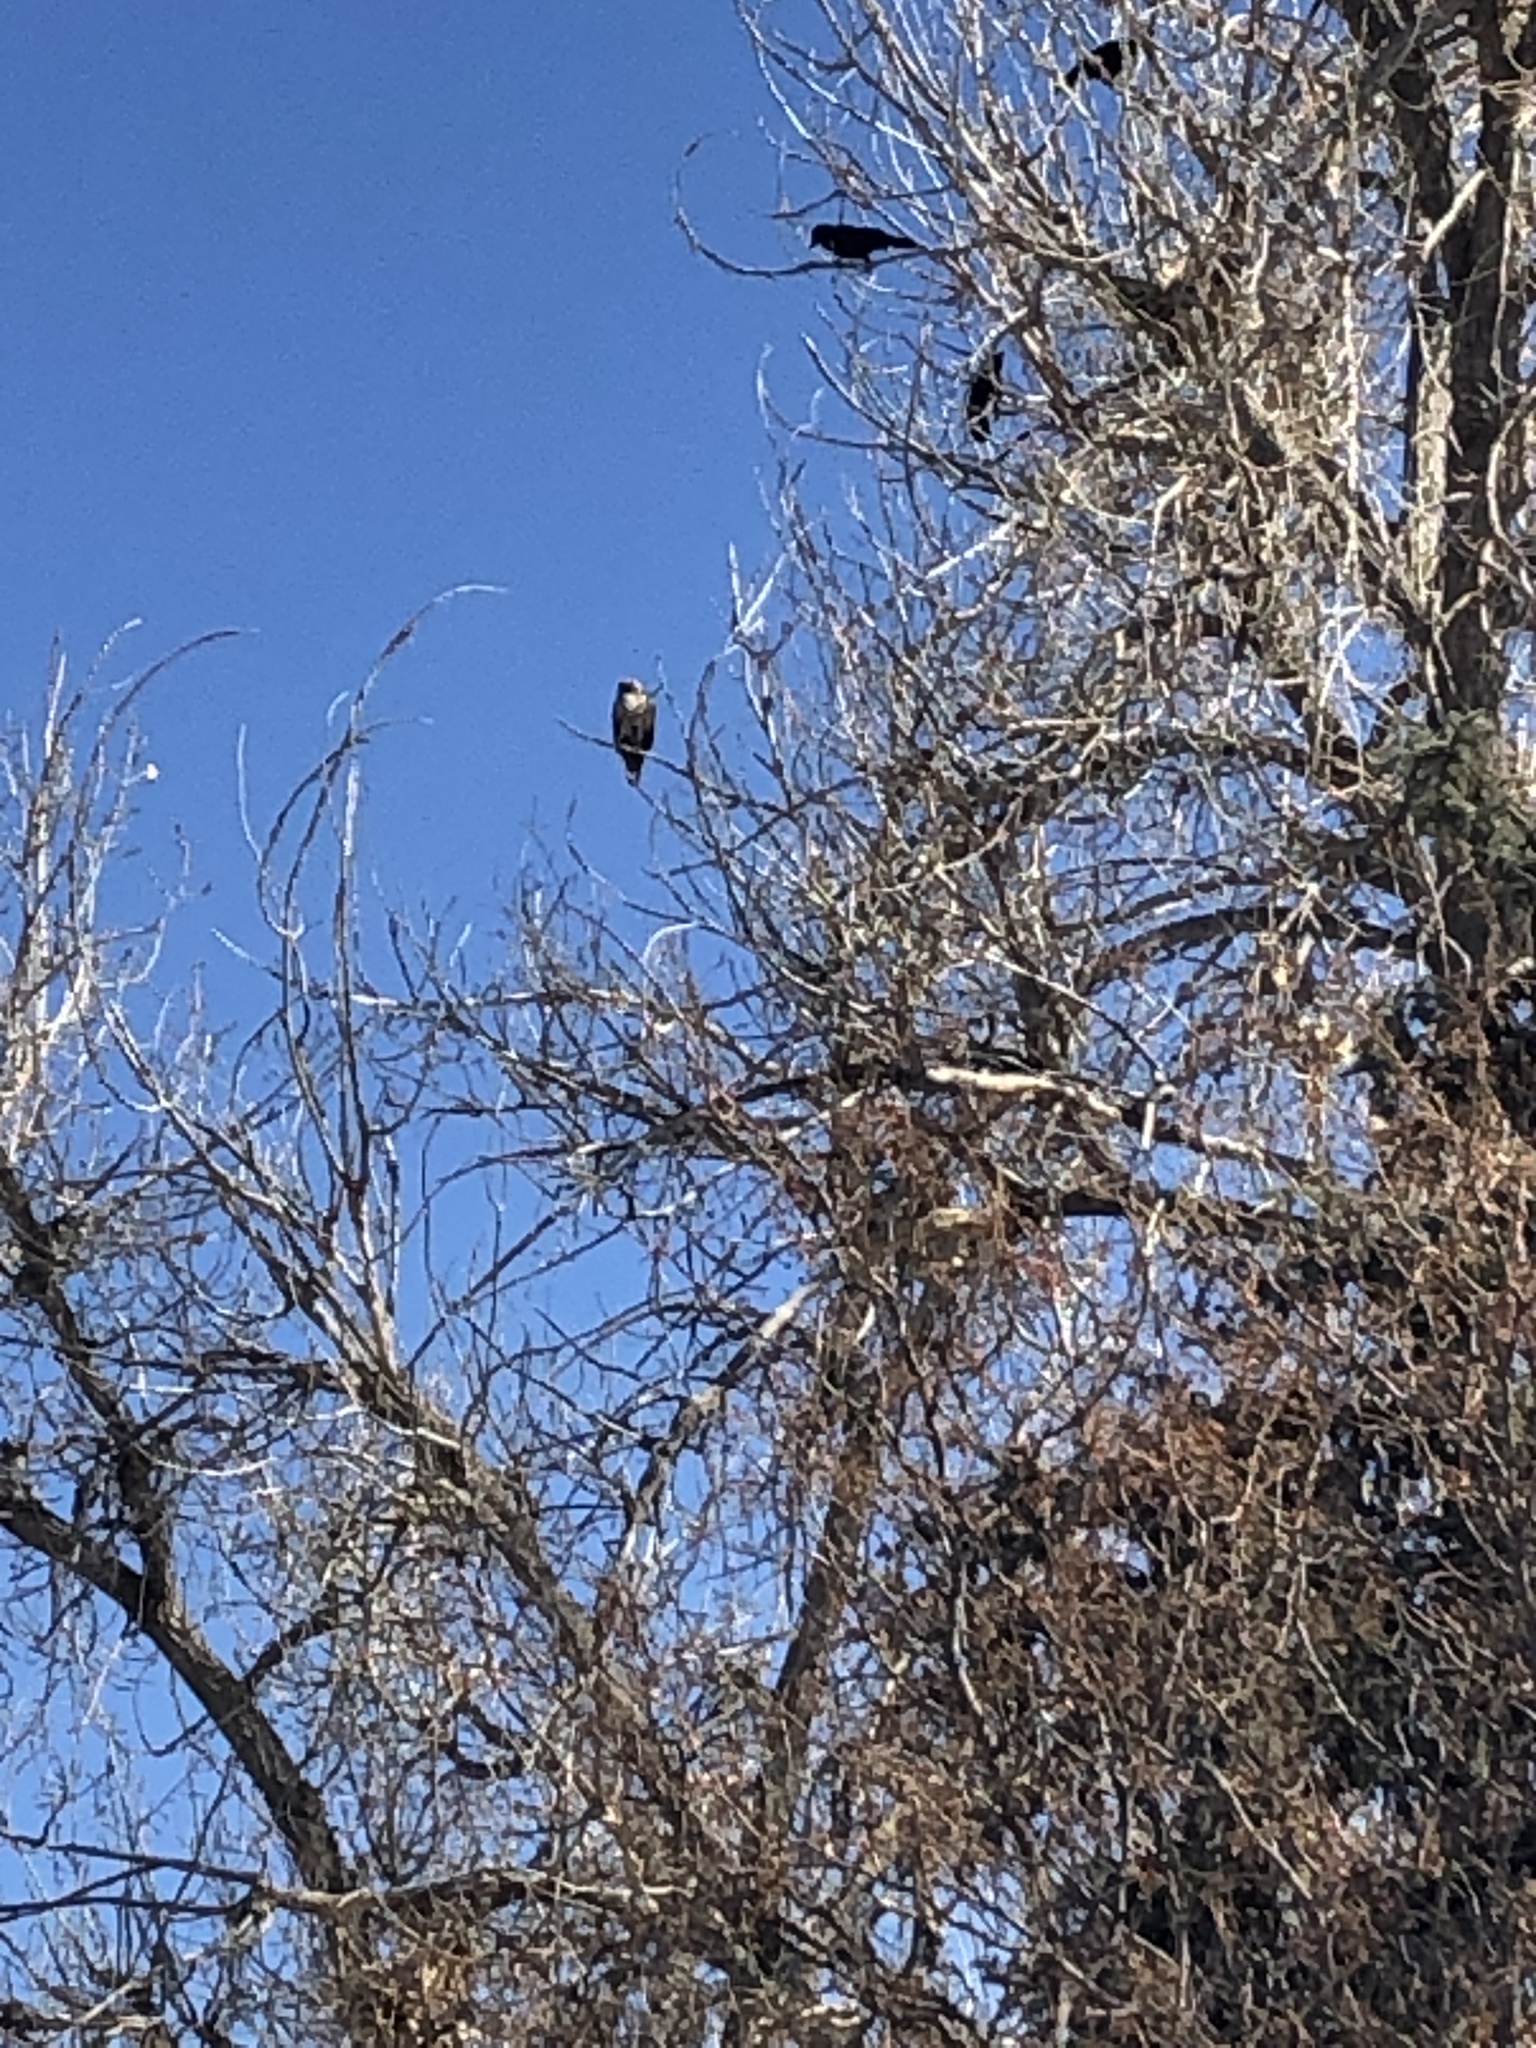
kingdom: Animalia
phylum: Chordata
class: Aves
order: Accipitriformes
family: Accipitridae
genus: Buteo
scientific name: Buteo
